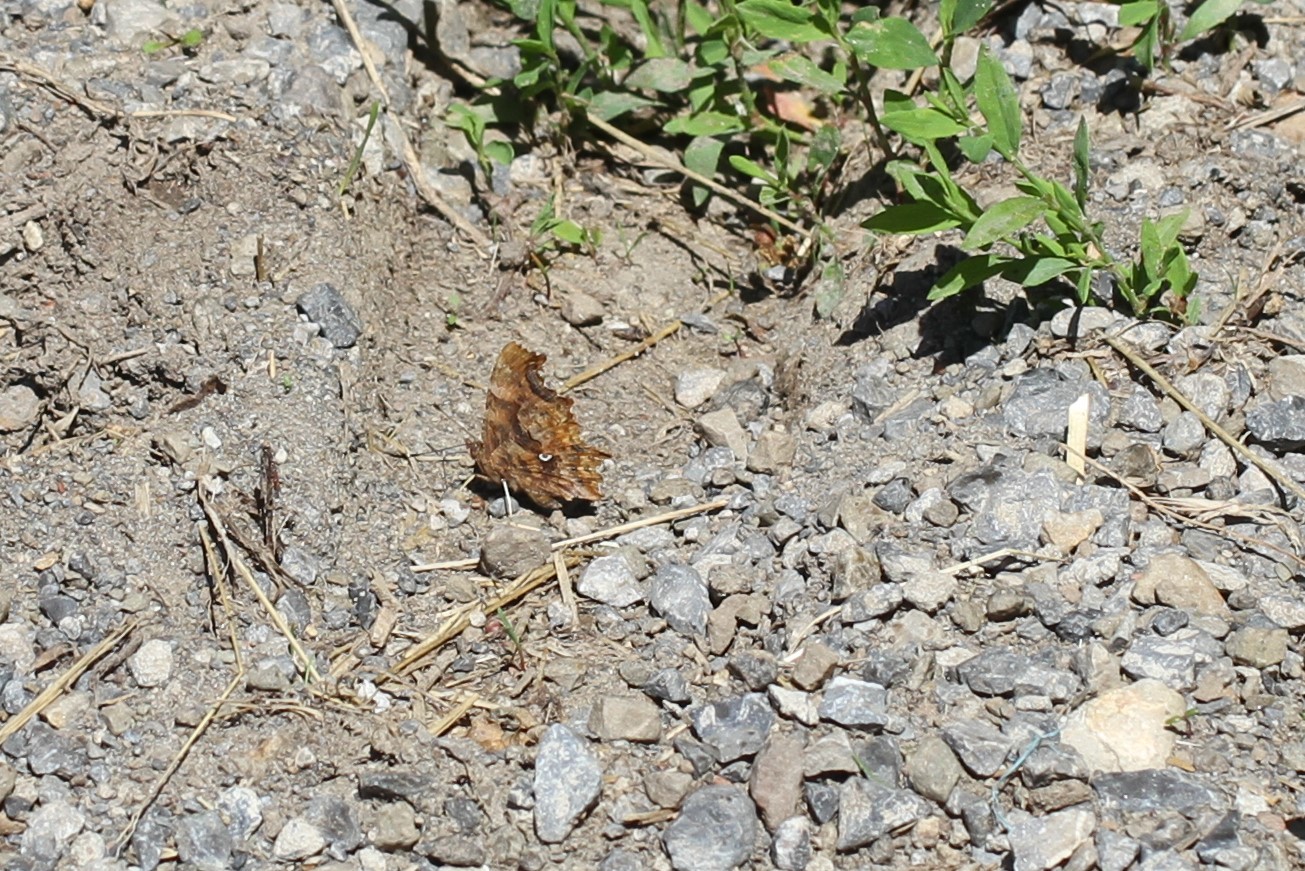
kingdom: Animalia
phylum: Arthropoda
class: Insecta
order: Lepidoptera
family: Nymphalidae
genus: Polygonia
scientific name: Polygonia c-album
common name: Comma
